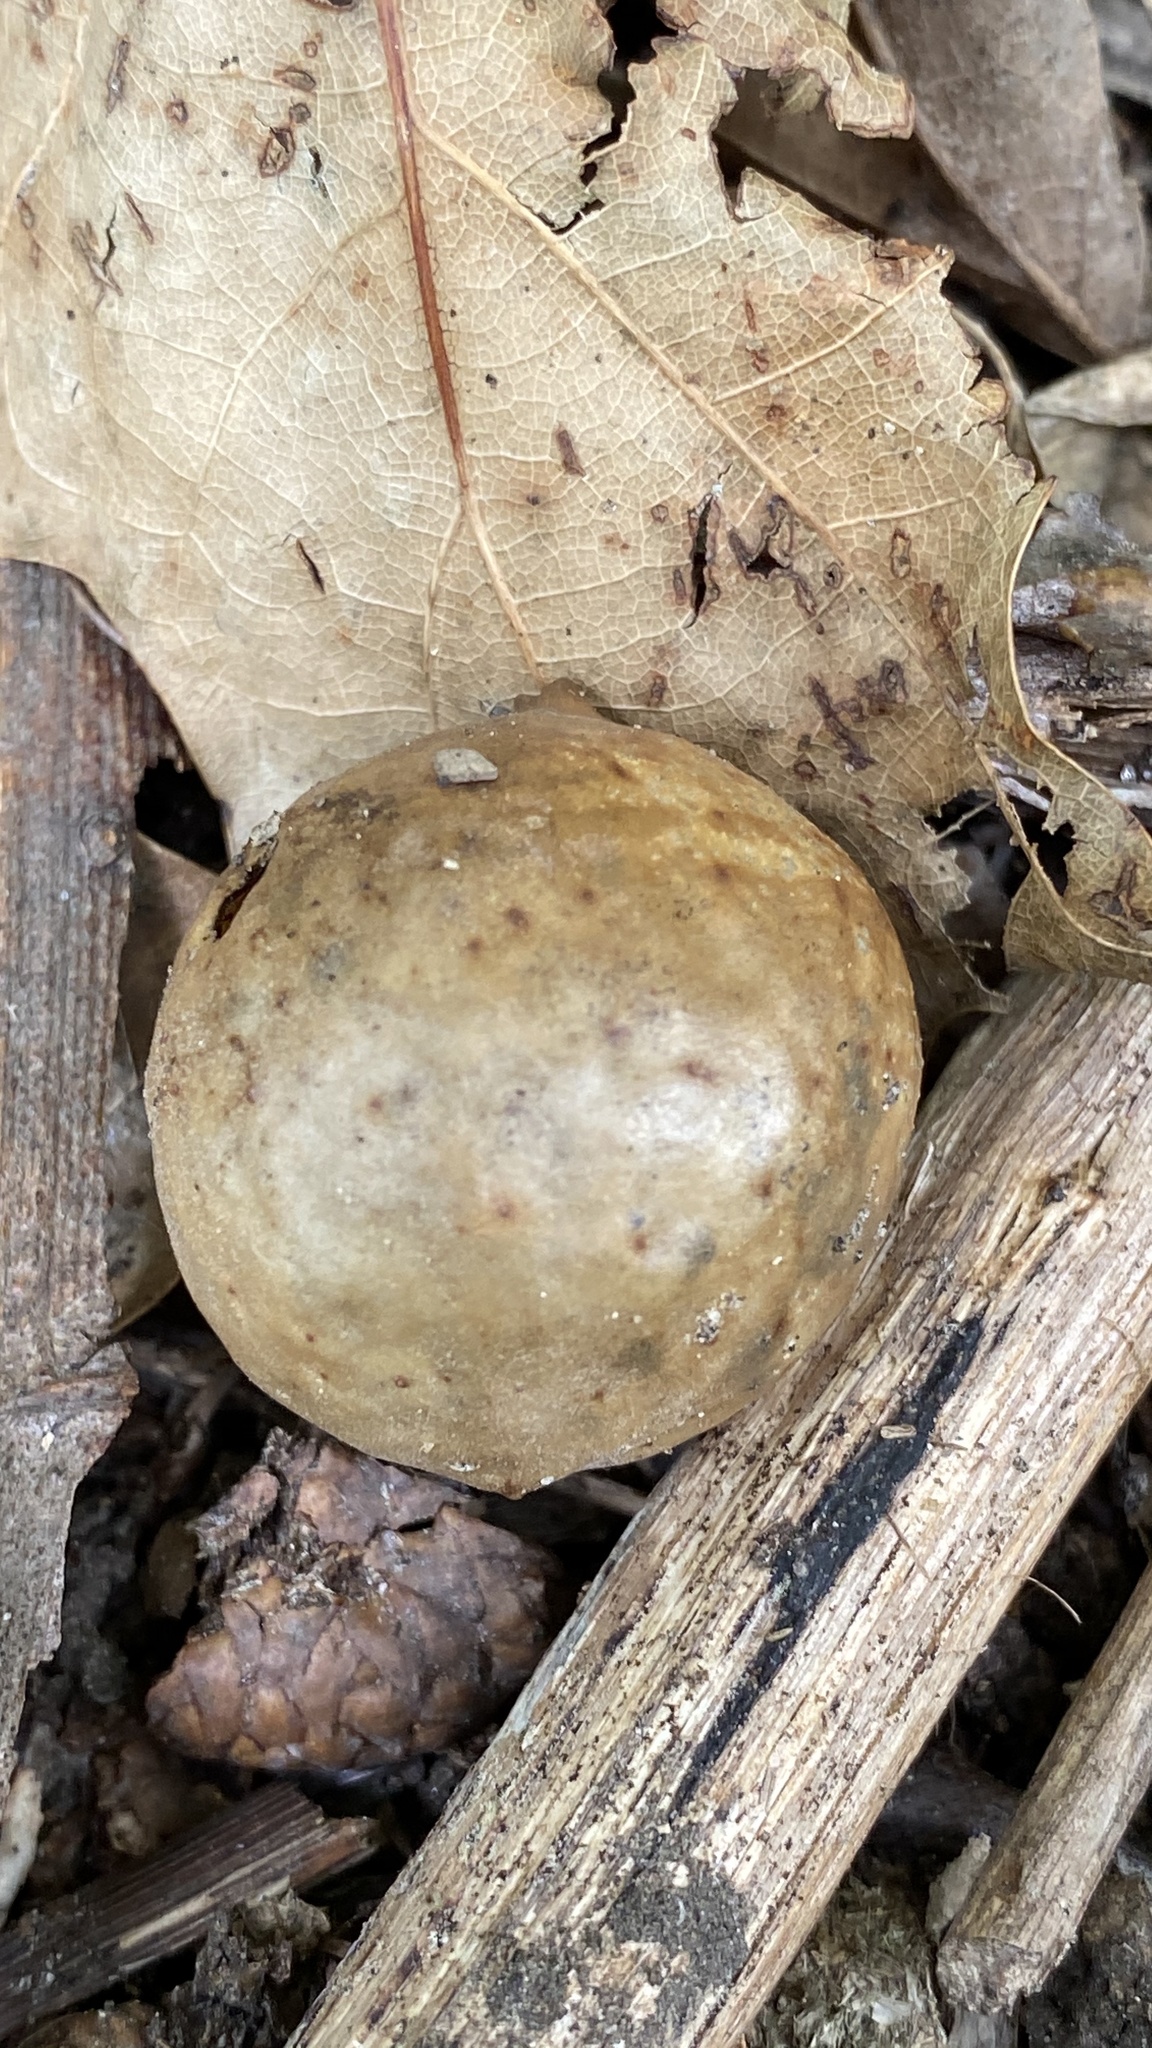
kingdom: Animalia
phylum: Arthropoda
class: Insecta
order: Hymenoptera
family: Cynipidae
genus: Amphibolips
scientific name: Amphibolips
